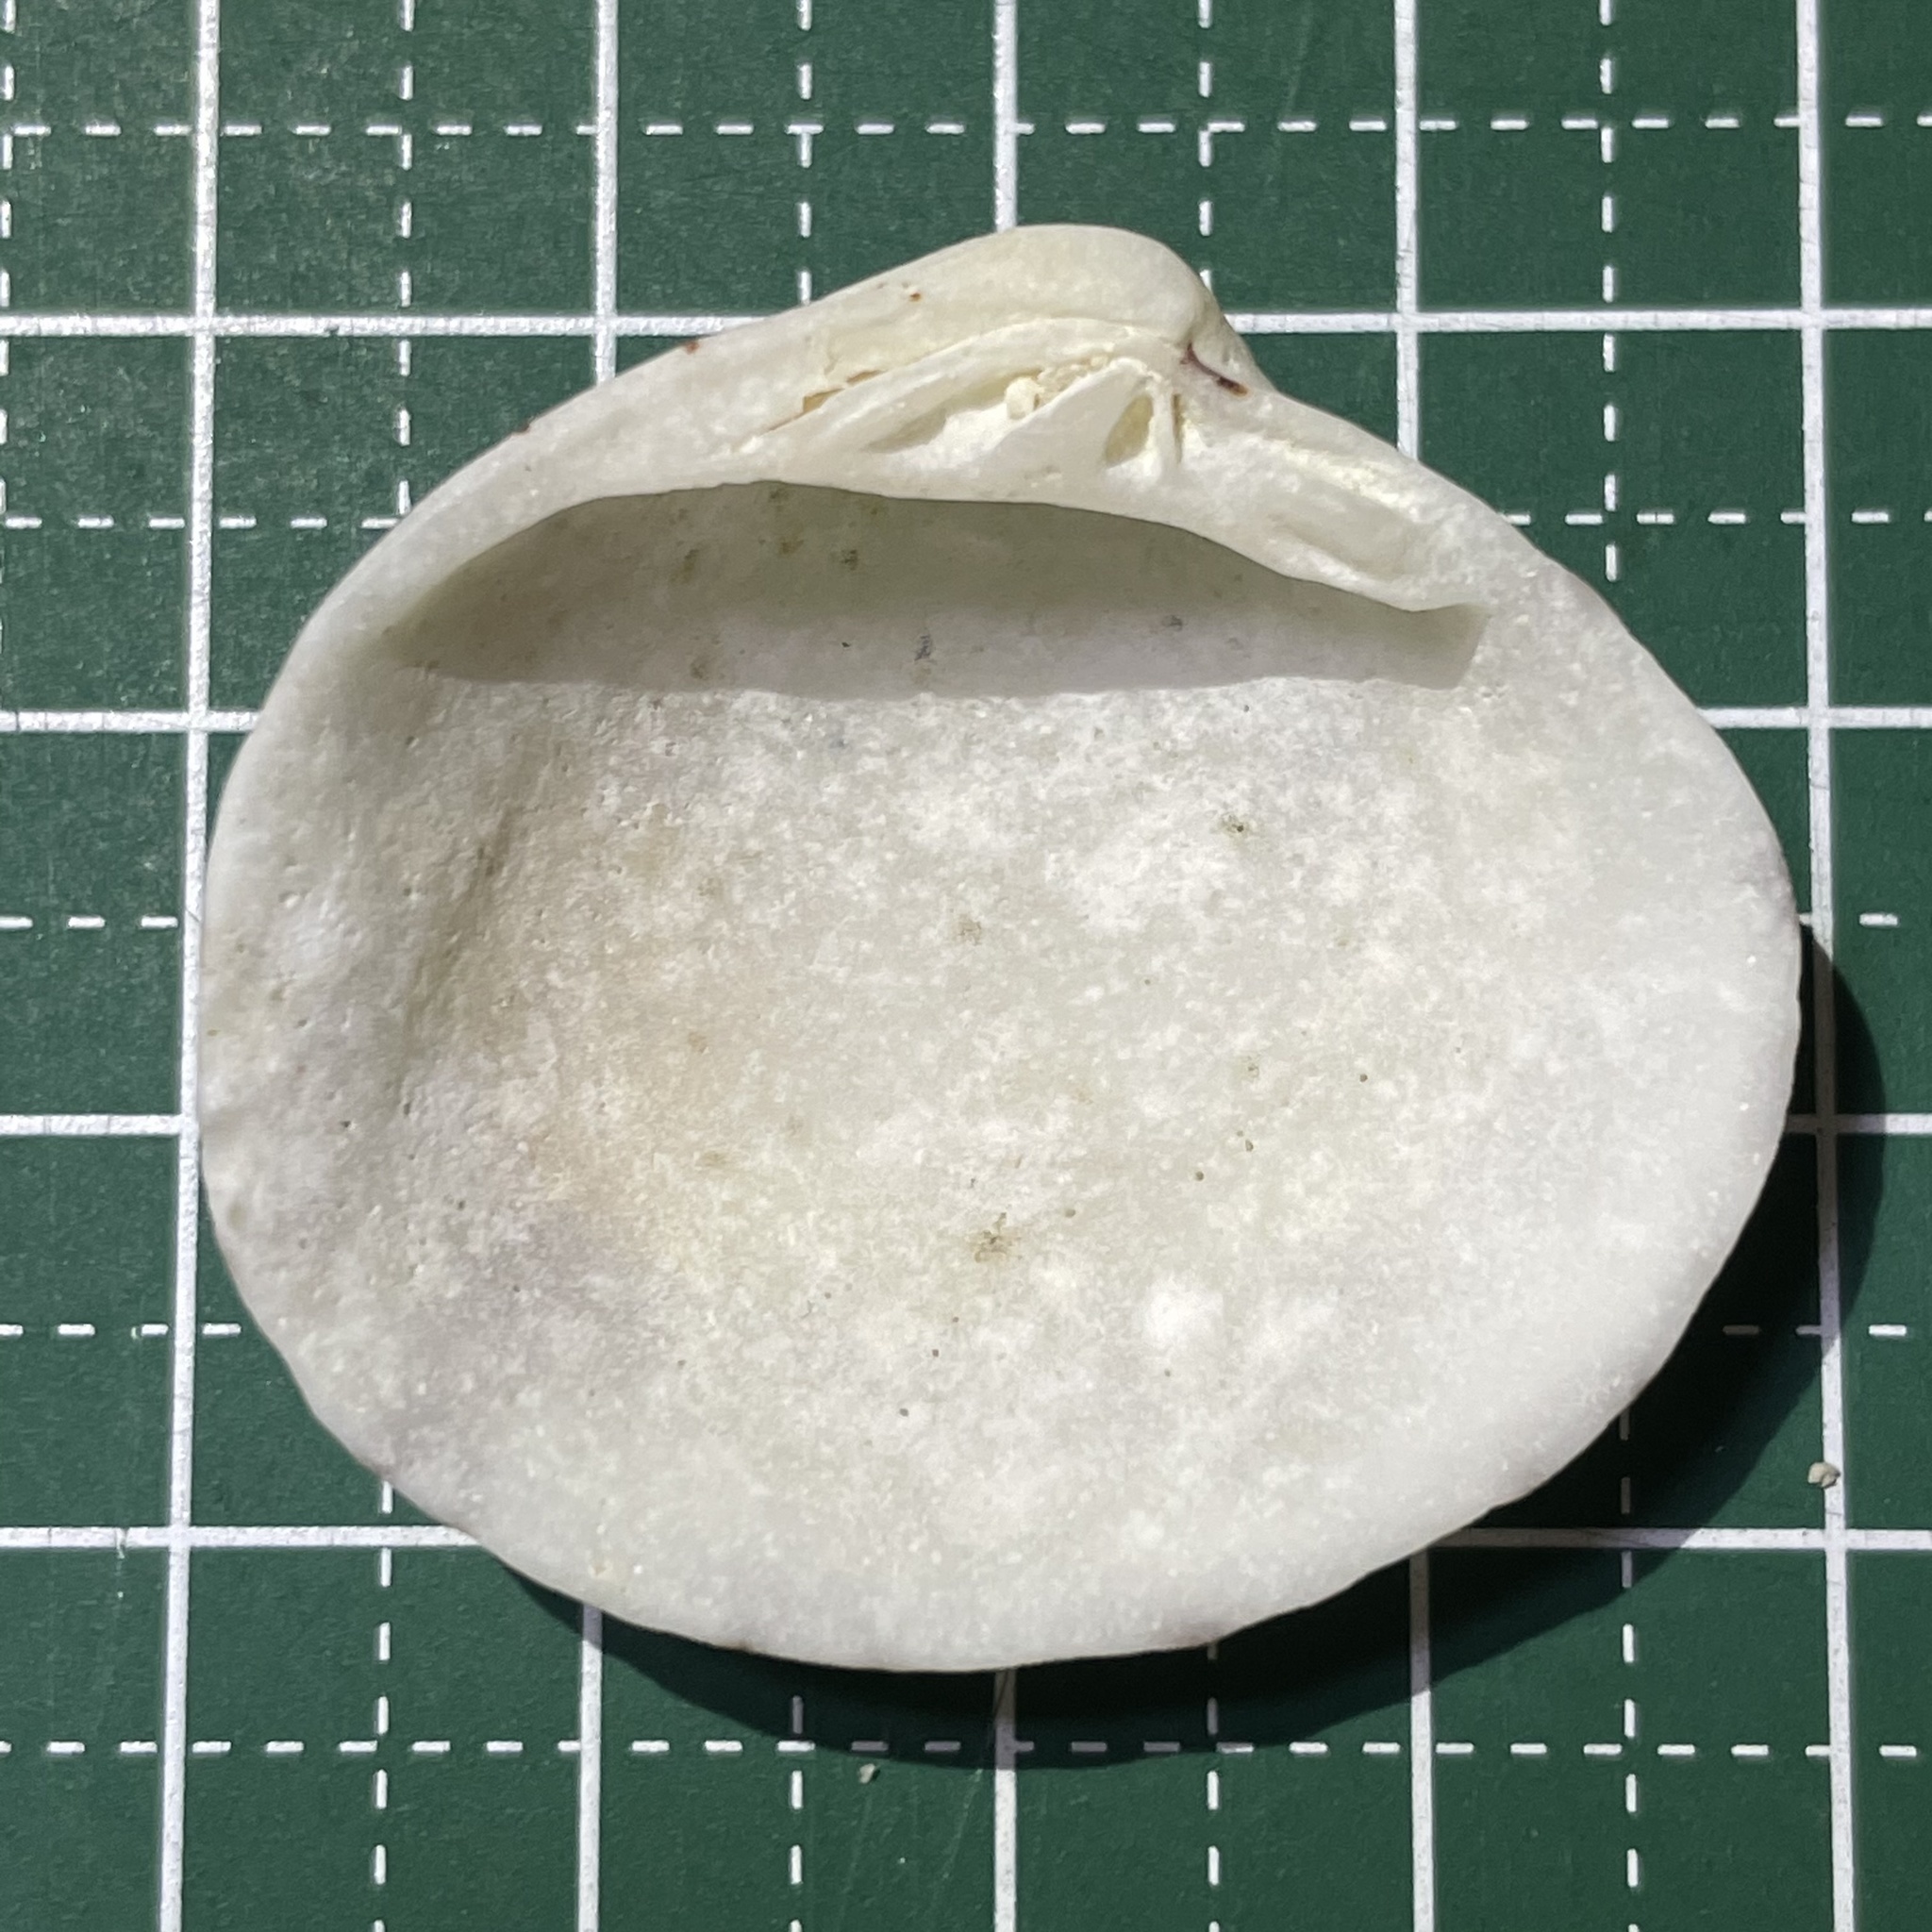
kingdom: Animalia
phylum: Mollusca
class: Bivalvia
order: Venerida
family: Veneridae
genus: Lioconcha
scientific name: Lioconcha castrensis
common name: Camp pitar-venus
